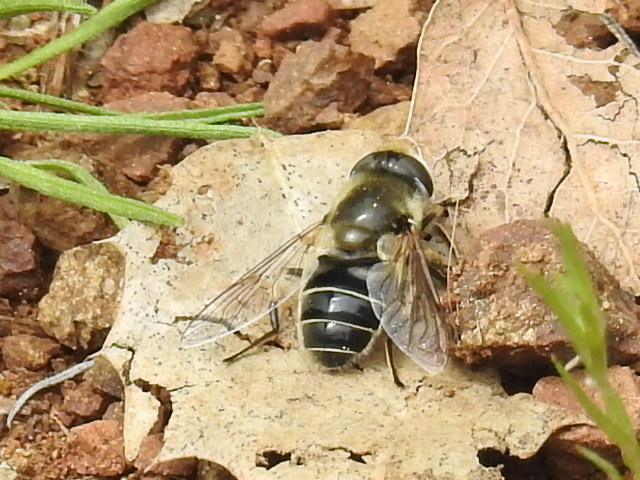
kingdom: Animalia
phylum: Arthropoda
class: Insecta
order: Diptera
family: Syrphidae
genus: Eristalis
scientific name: Eristalis hirta
